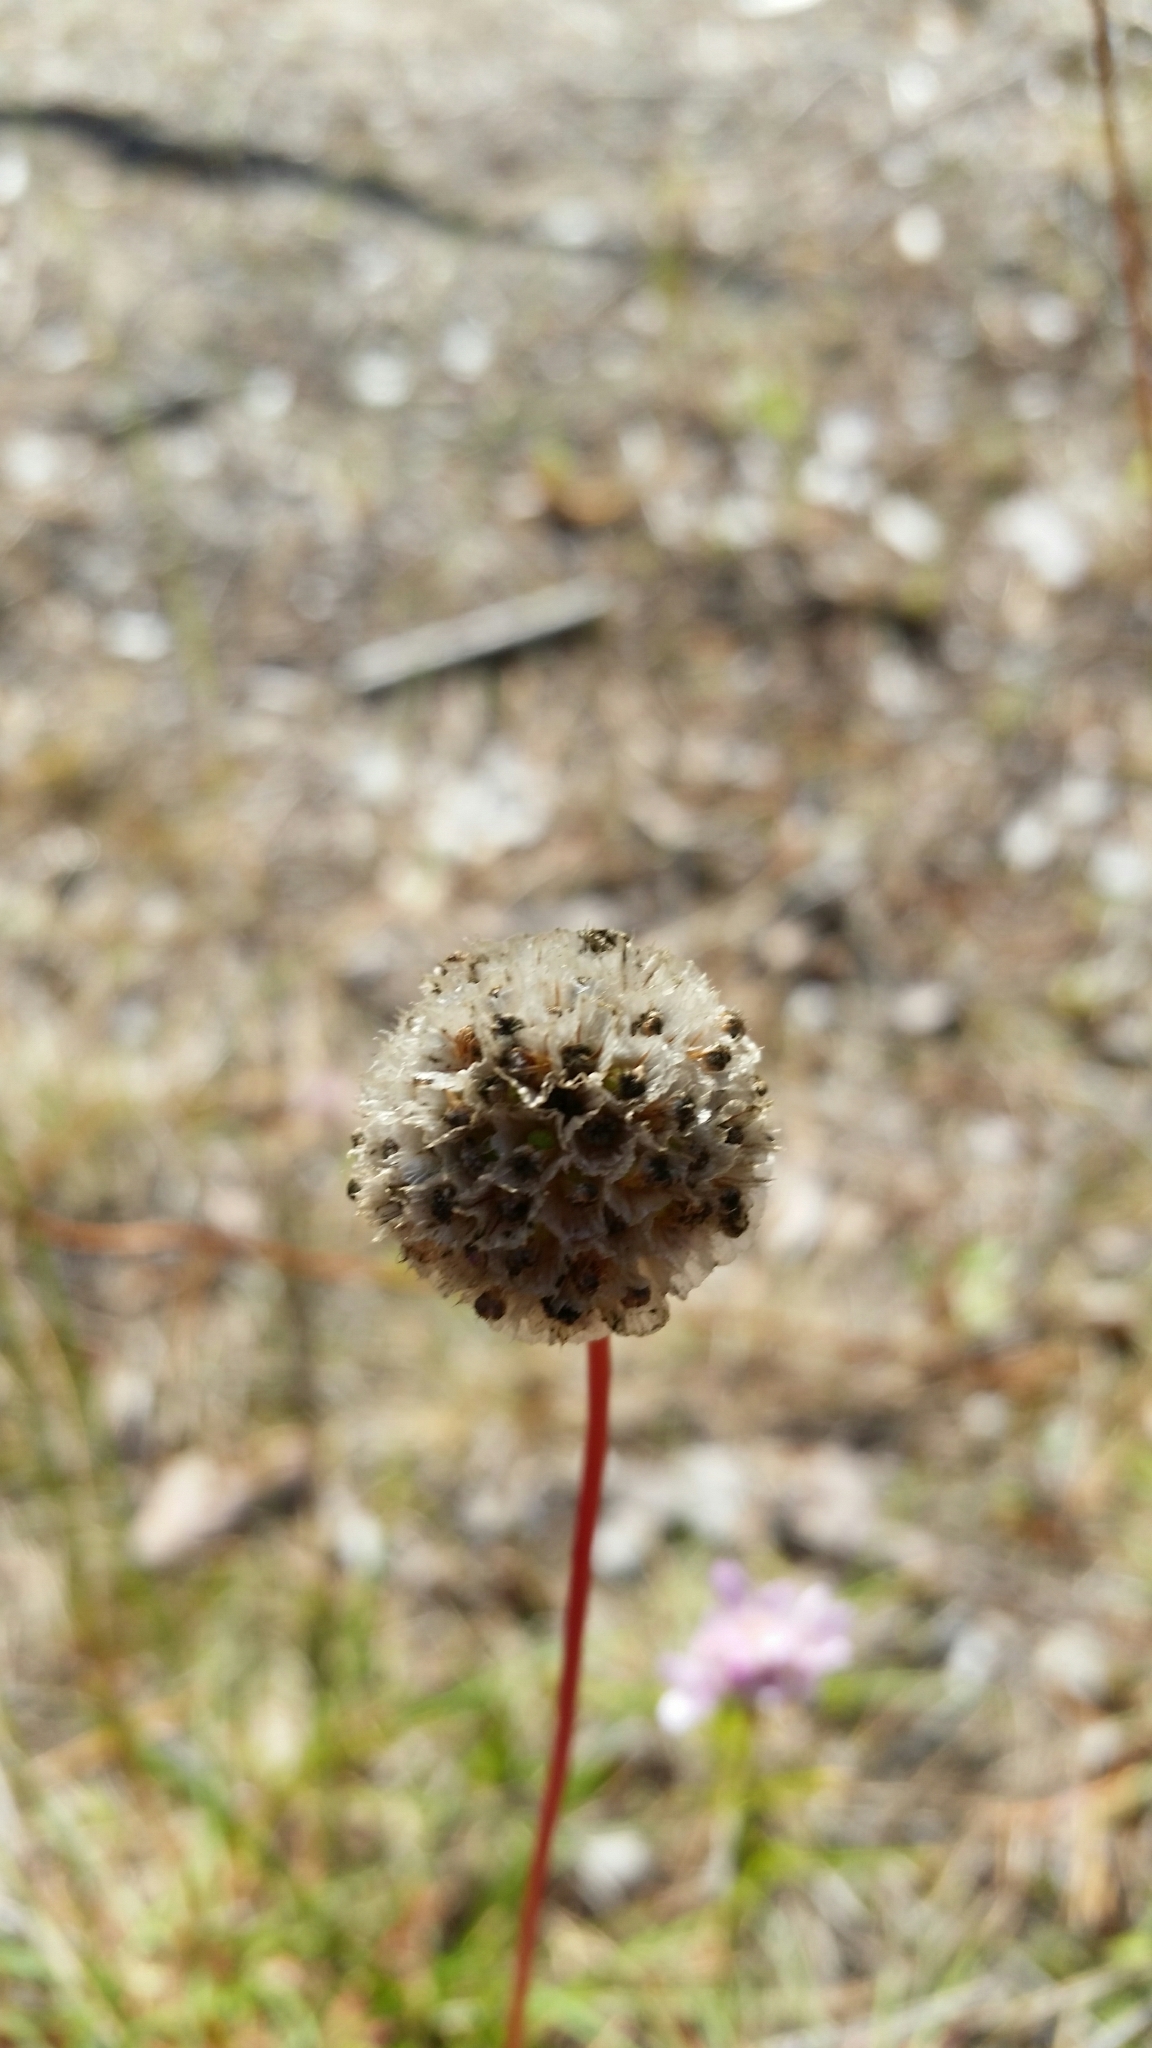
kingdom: Plantae
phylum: Tracheophyta
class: Magnoliopsida
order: Caryophyllales
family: Plumbaginaceae
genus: Armeria
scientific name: Armeria maritima
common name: Thrift
